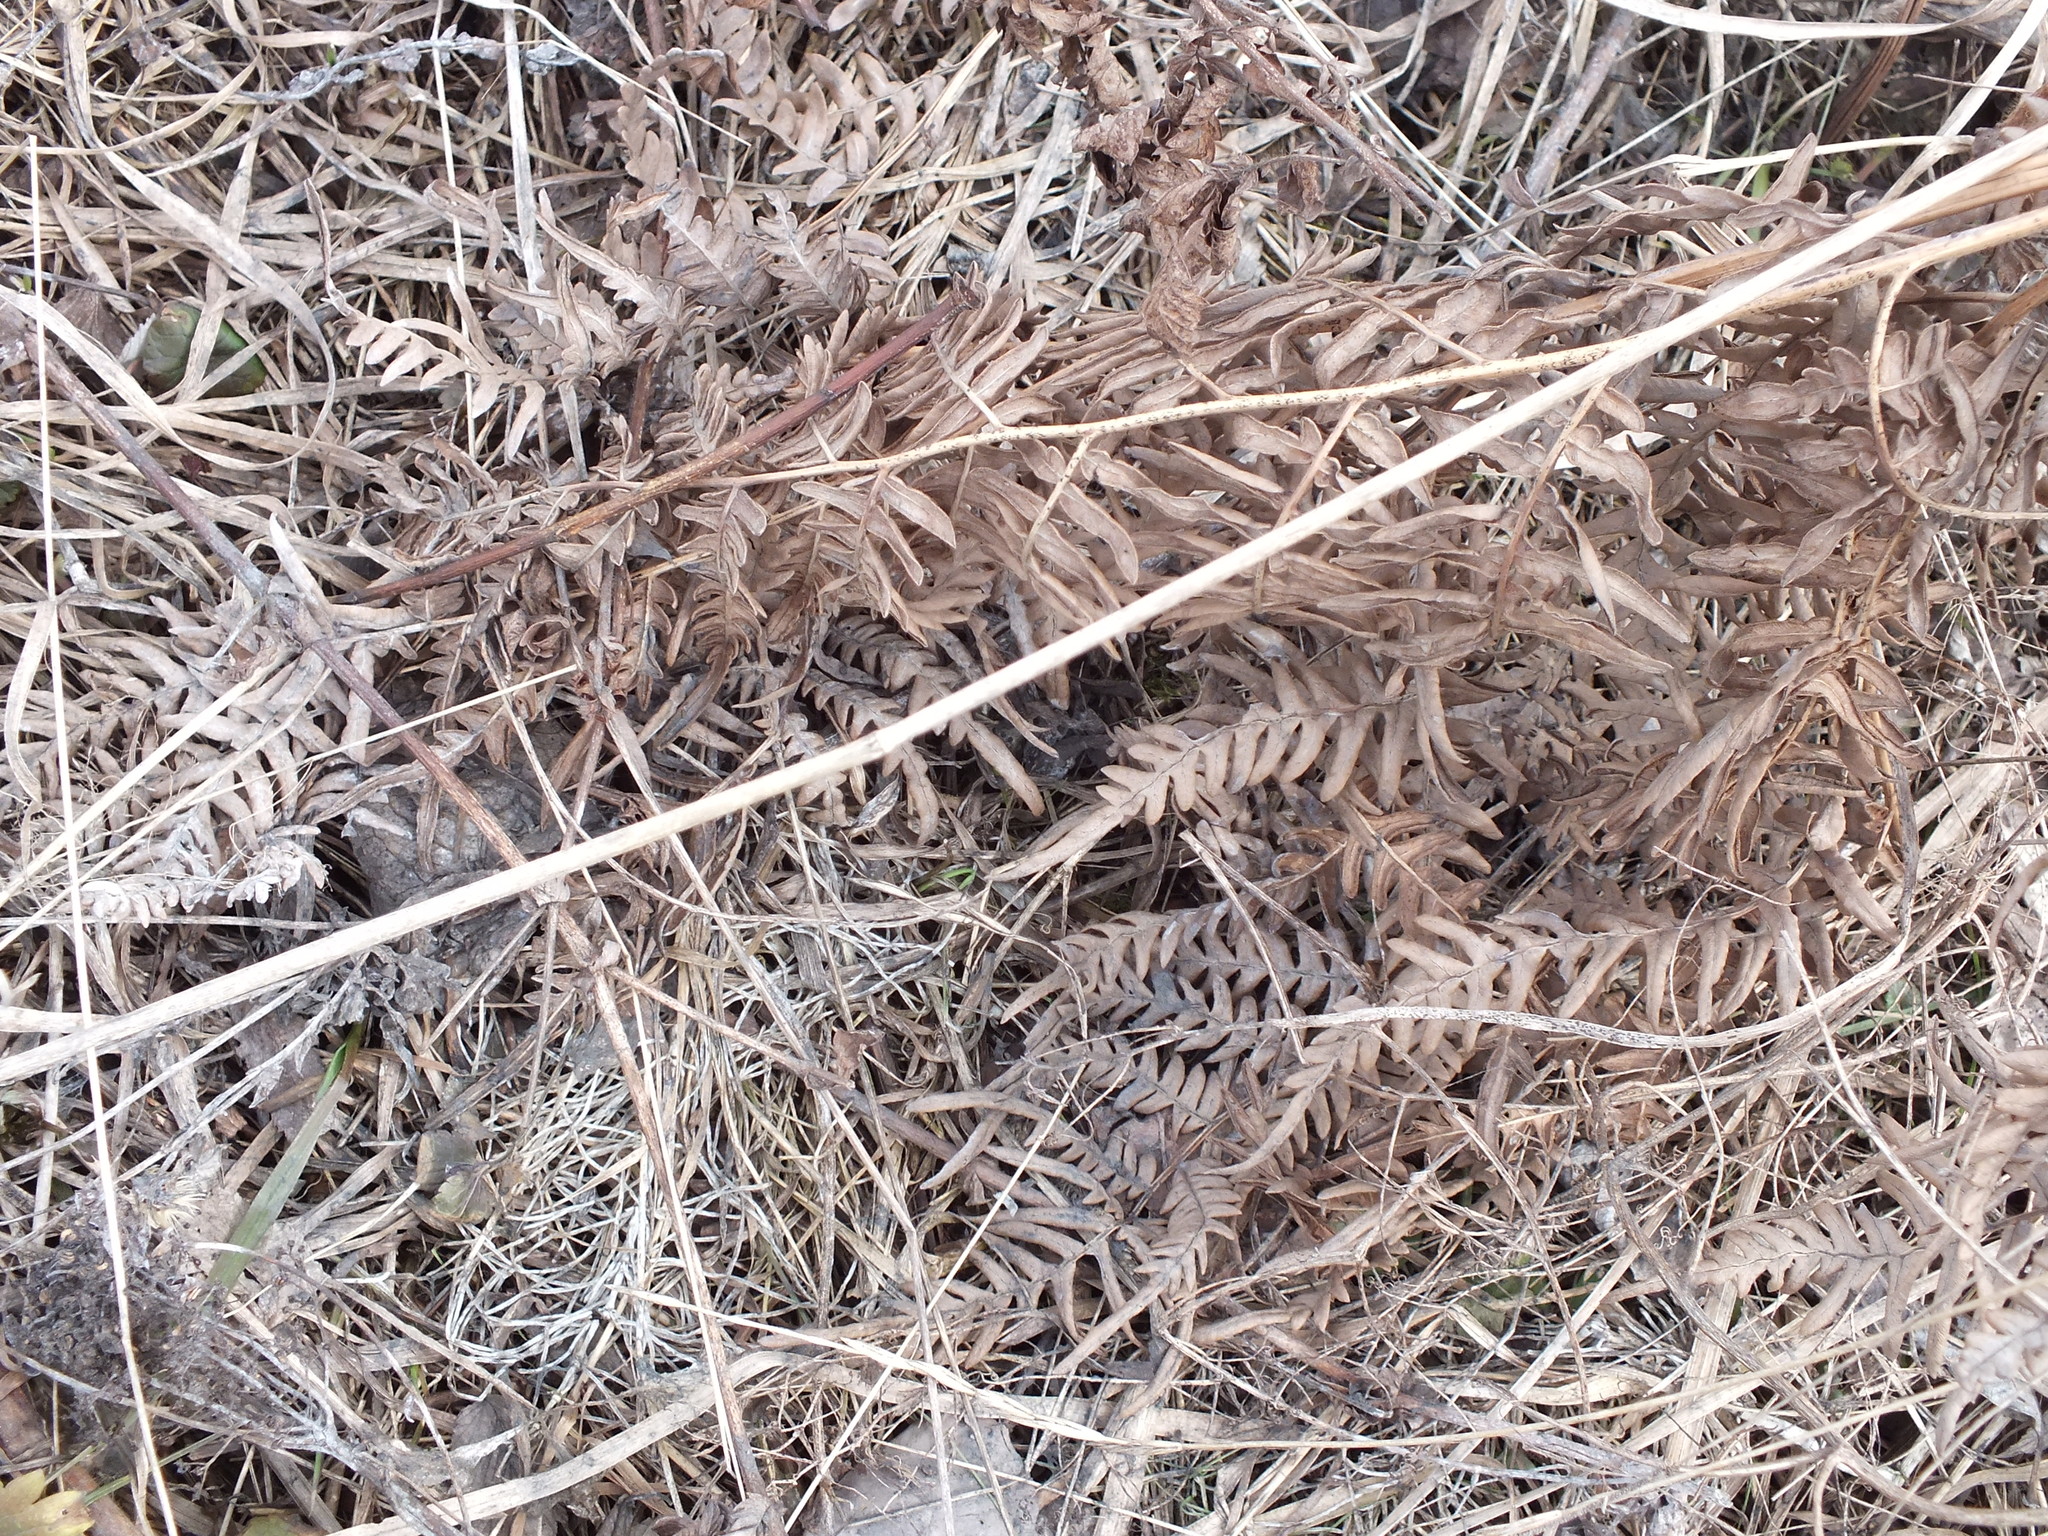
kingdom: Plantae
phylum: Tracheophyta
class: Polypodiopsida
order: Polypodiales
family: Dennstaedtiaceae
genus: Pteridium
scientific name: Pteridium aquilinum
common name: Bracken
